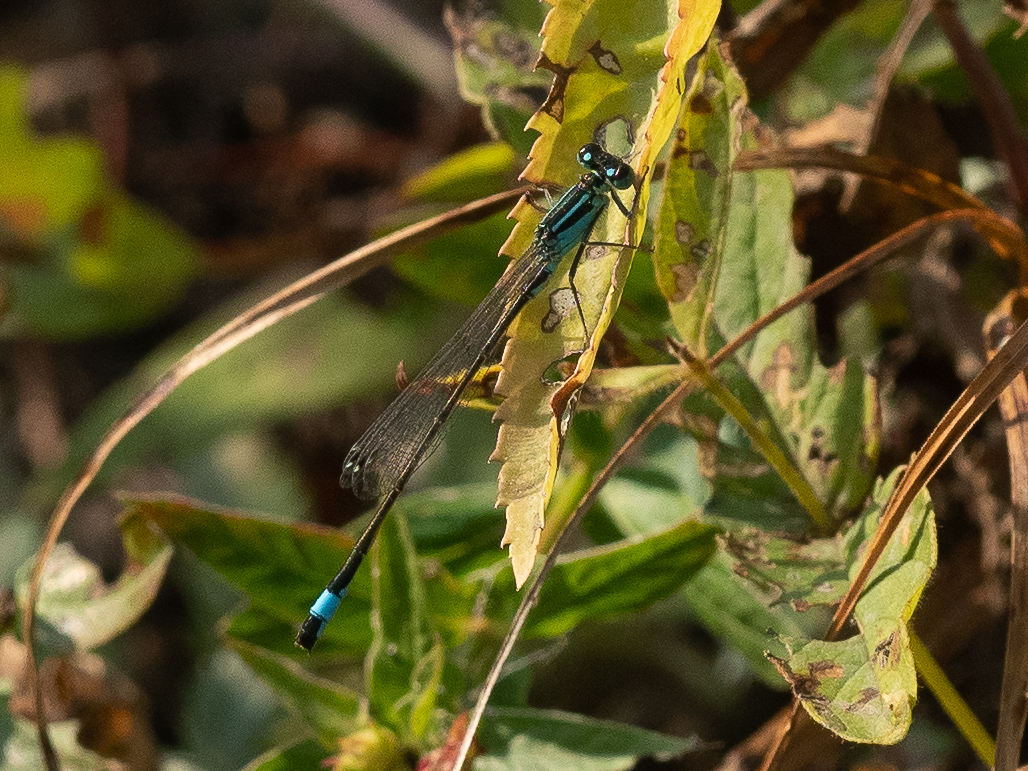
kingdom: Animalia
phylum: Arthropoda
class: Insecta
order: Odonata
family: Coenagrionidae
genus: Ischnura
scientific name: Ischnura elegans
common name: Blue-tailed damselfly
